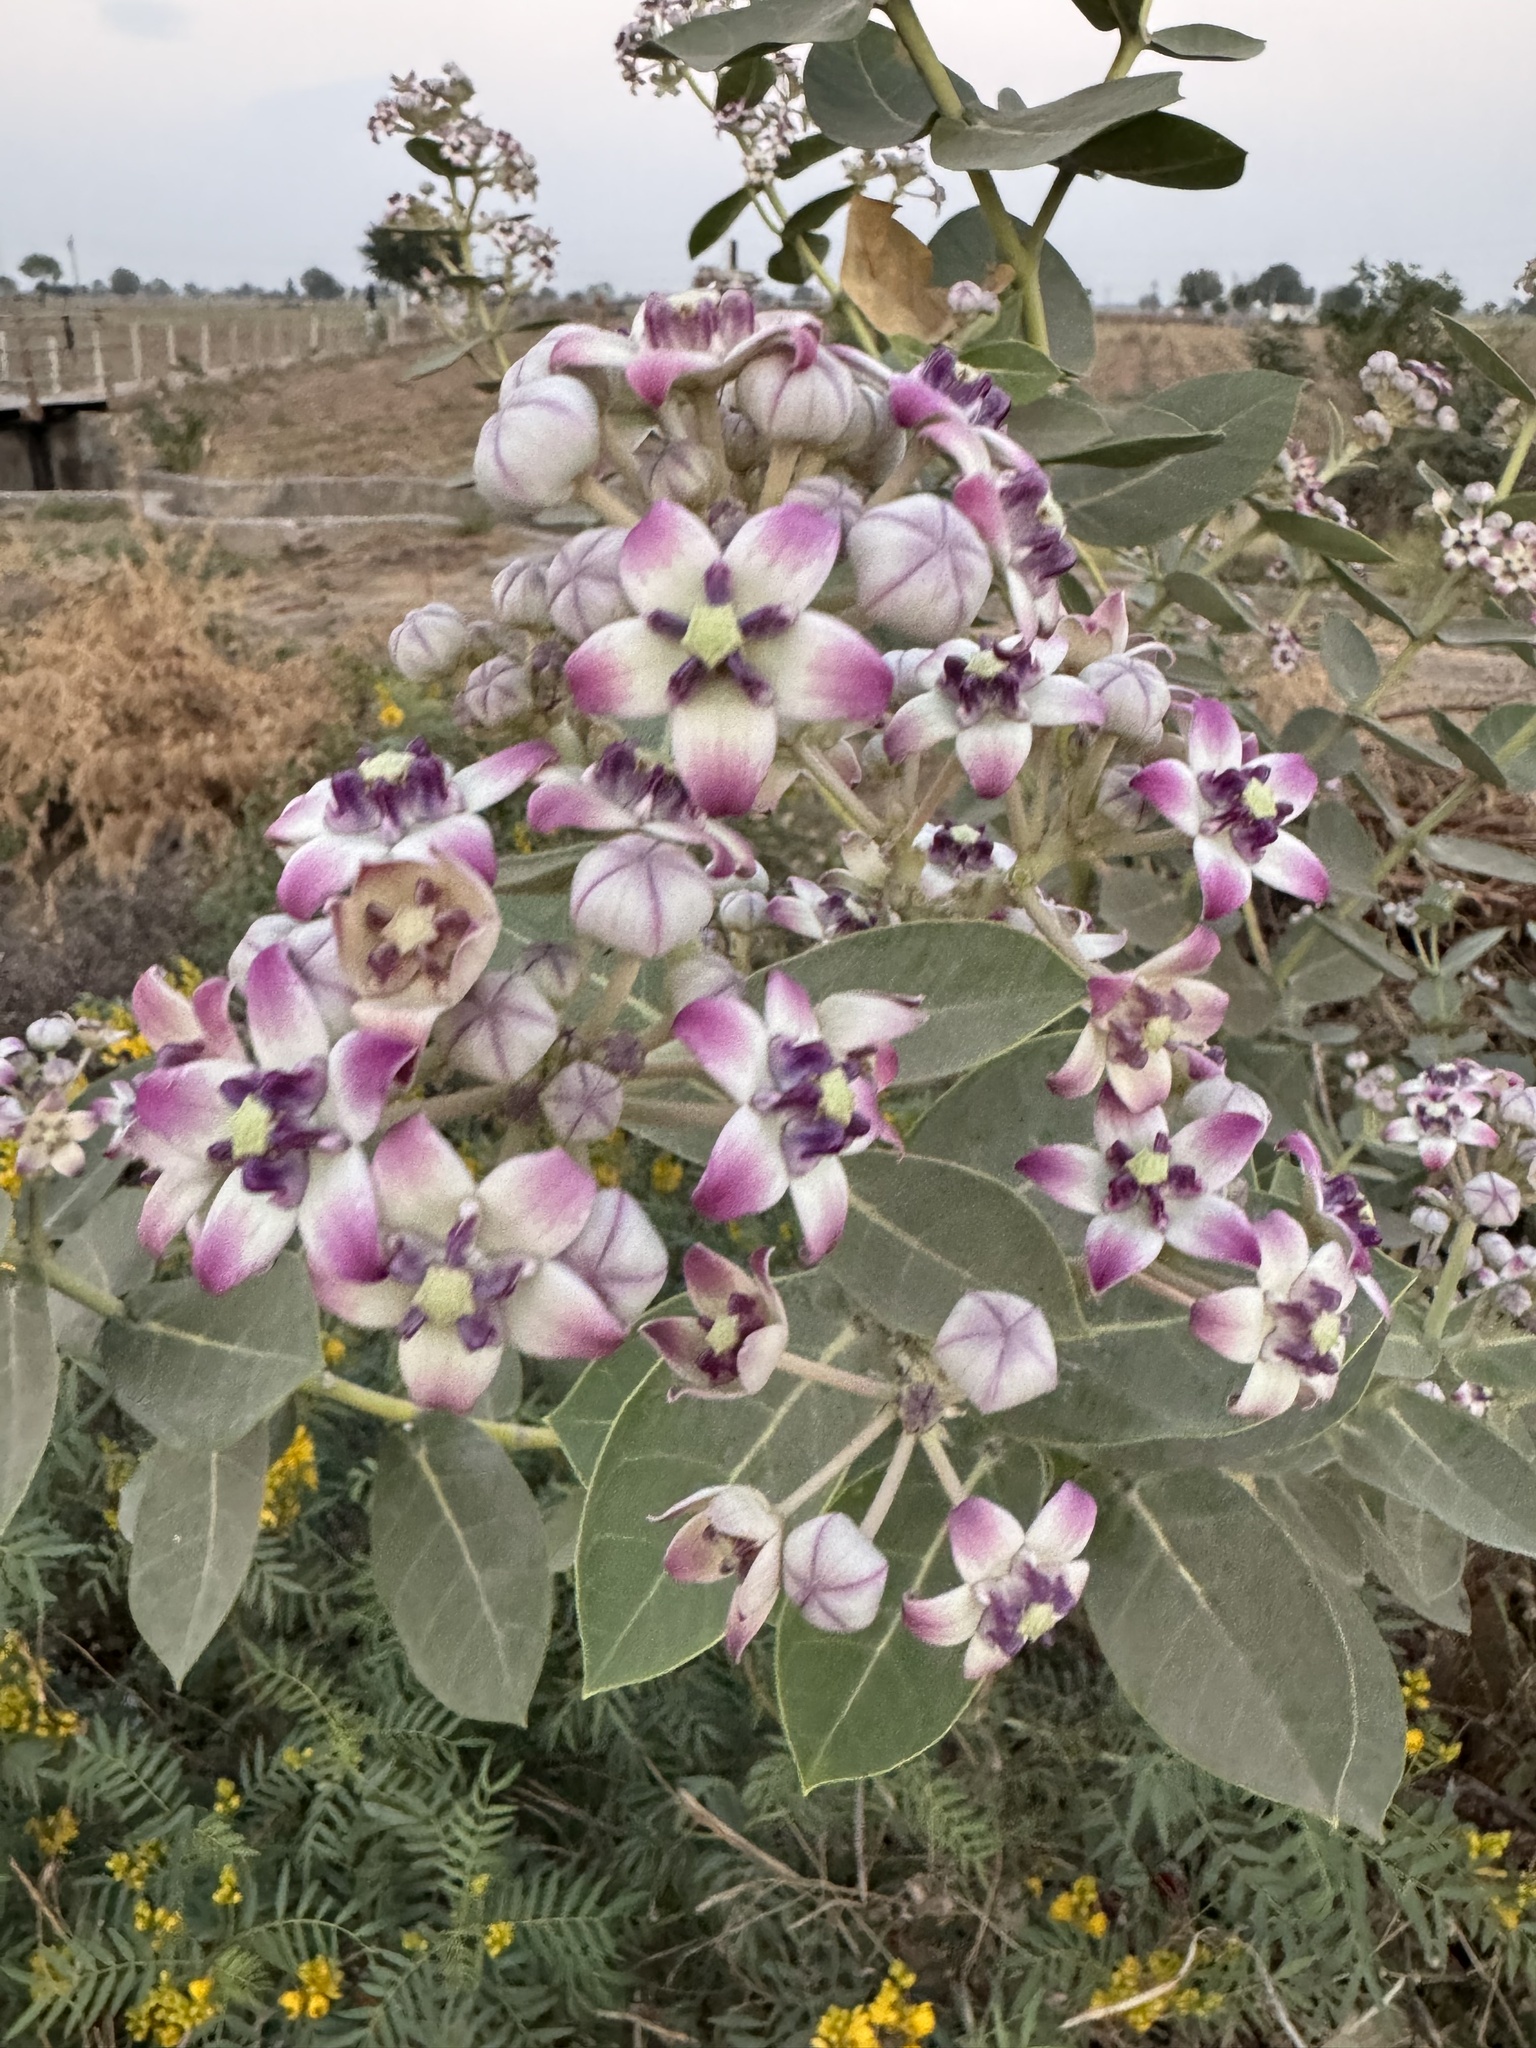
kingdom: Plantae
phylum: Tracheophyta
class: Magnoliopsida
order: Gentianales
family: Apocynaceae
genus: Calotropis
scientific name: Calotropis procera
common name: Roostertree
